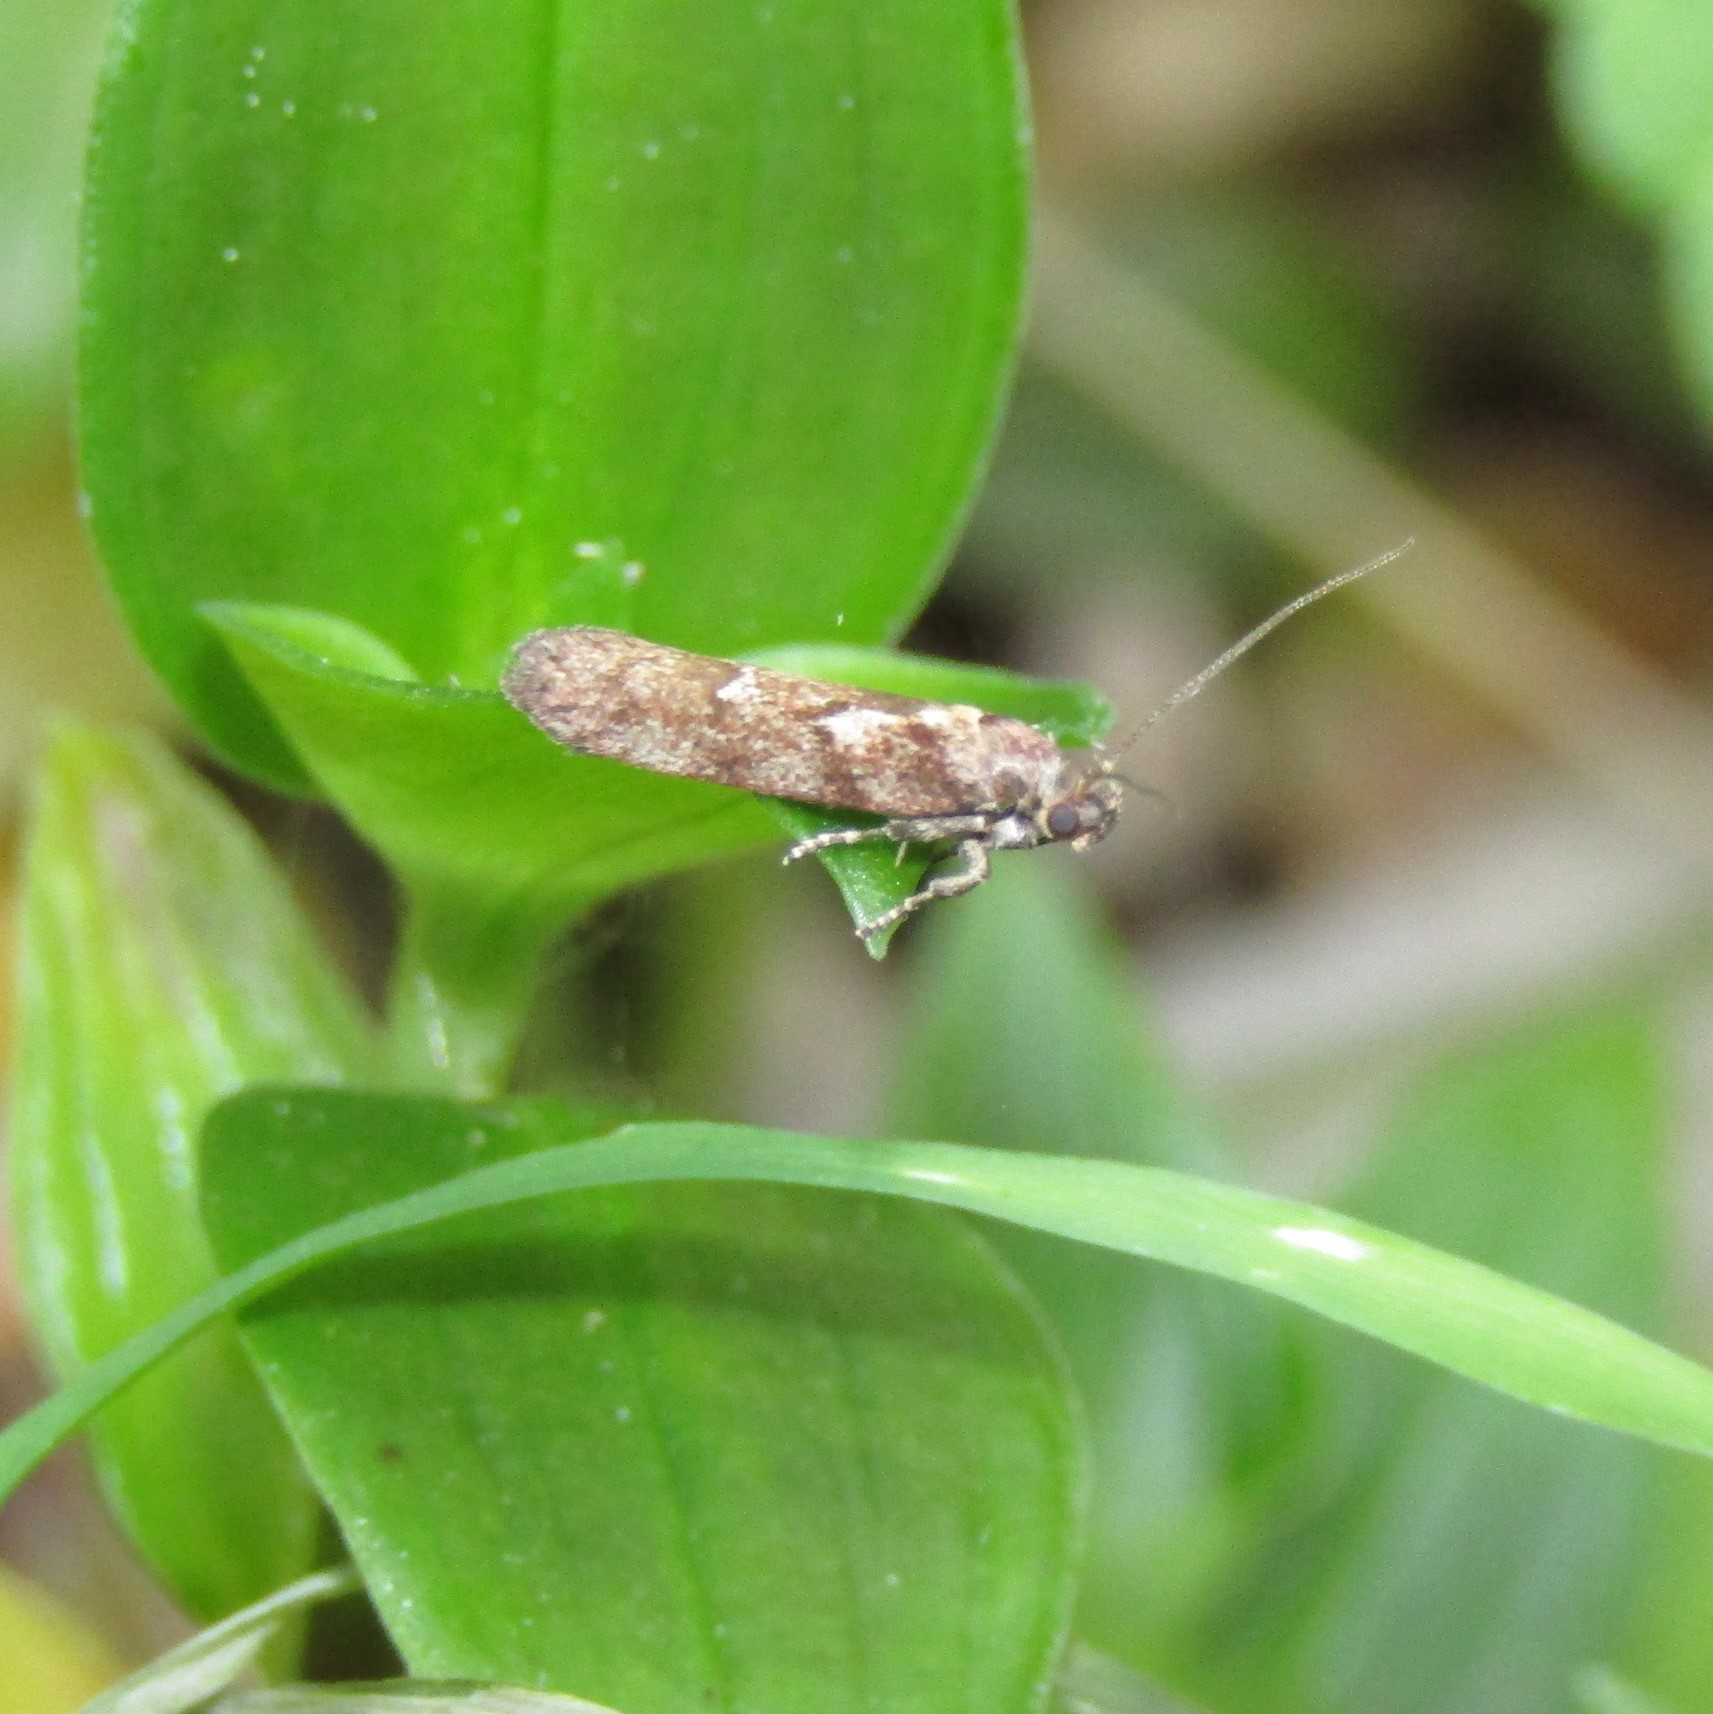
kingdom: Animalia
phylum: Arthropoda
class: Insecta
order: Lepidoptera
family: Oecophoridae
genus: Chersadaula
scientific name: Chersadaula ochrogastra
